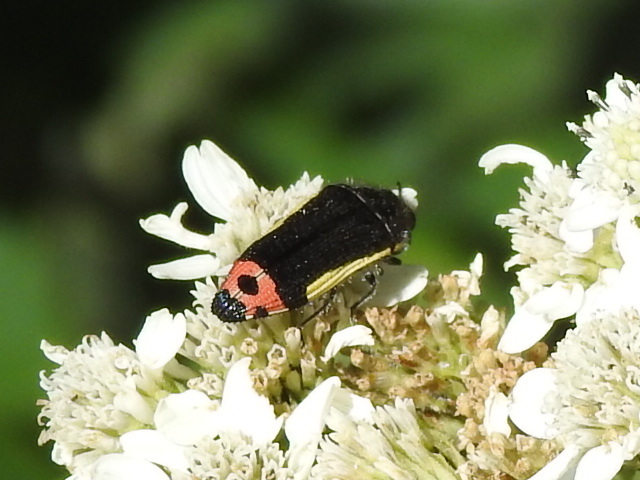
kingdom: Animalia
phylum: Arthropoda
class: Insecta
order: Coleoptera
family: Buprestidae
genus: Acmaeodera
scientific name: Acmaeodera flavomarginata
